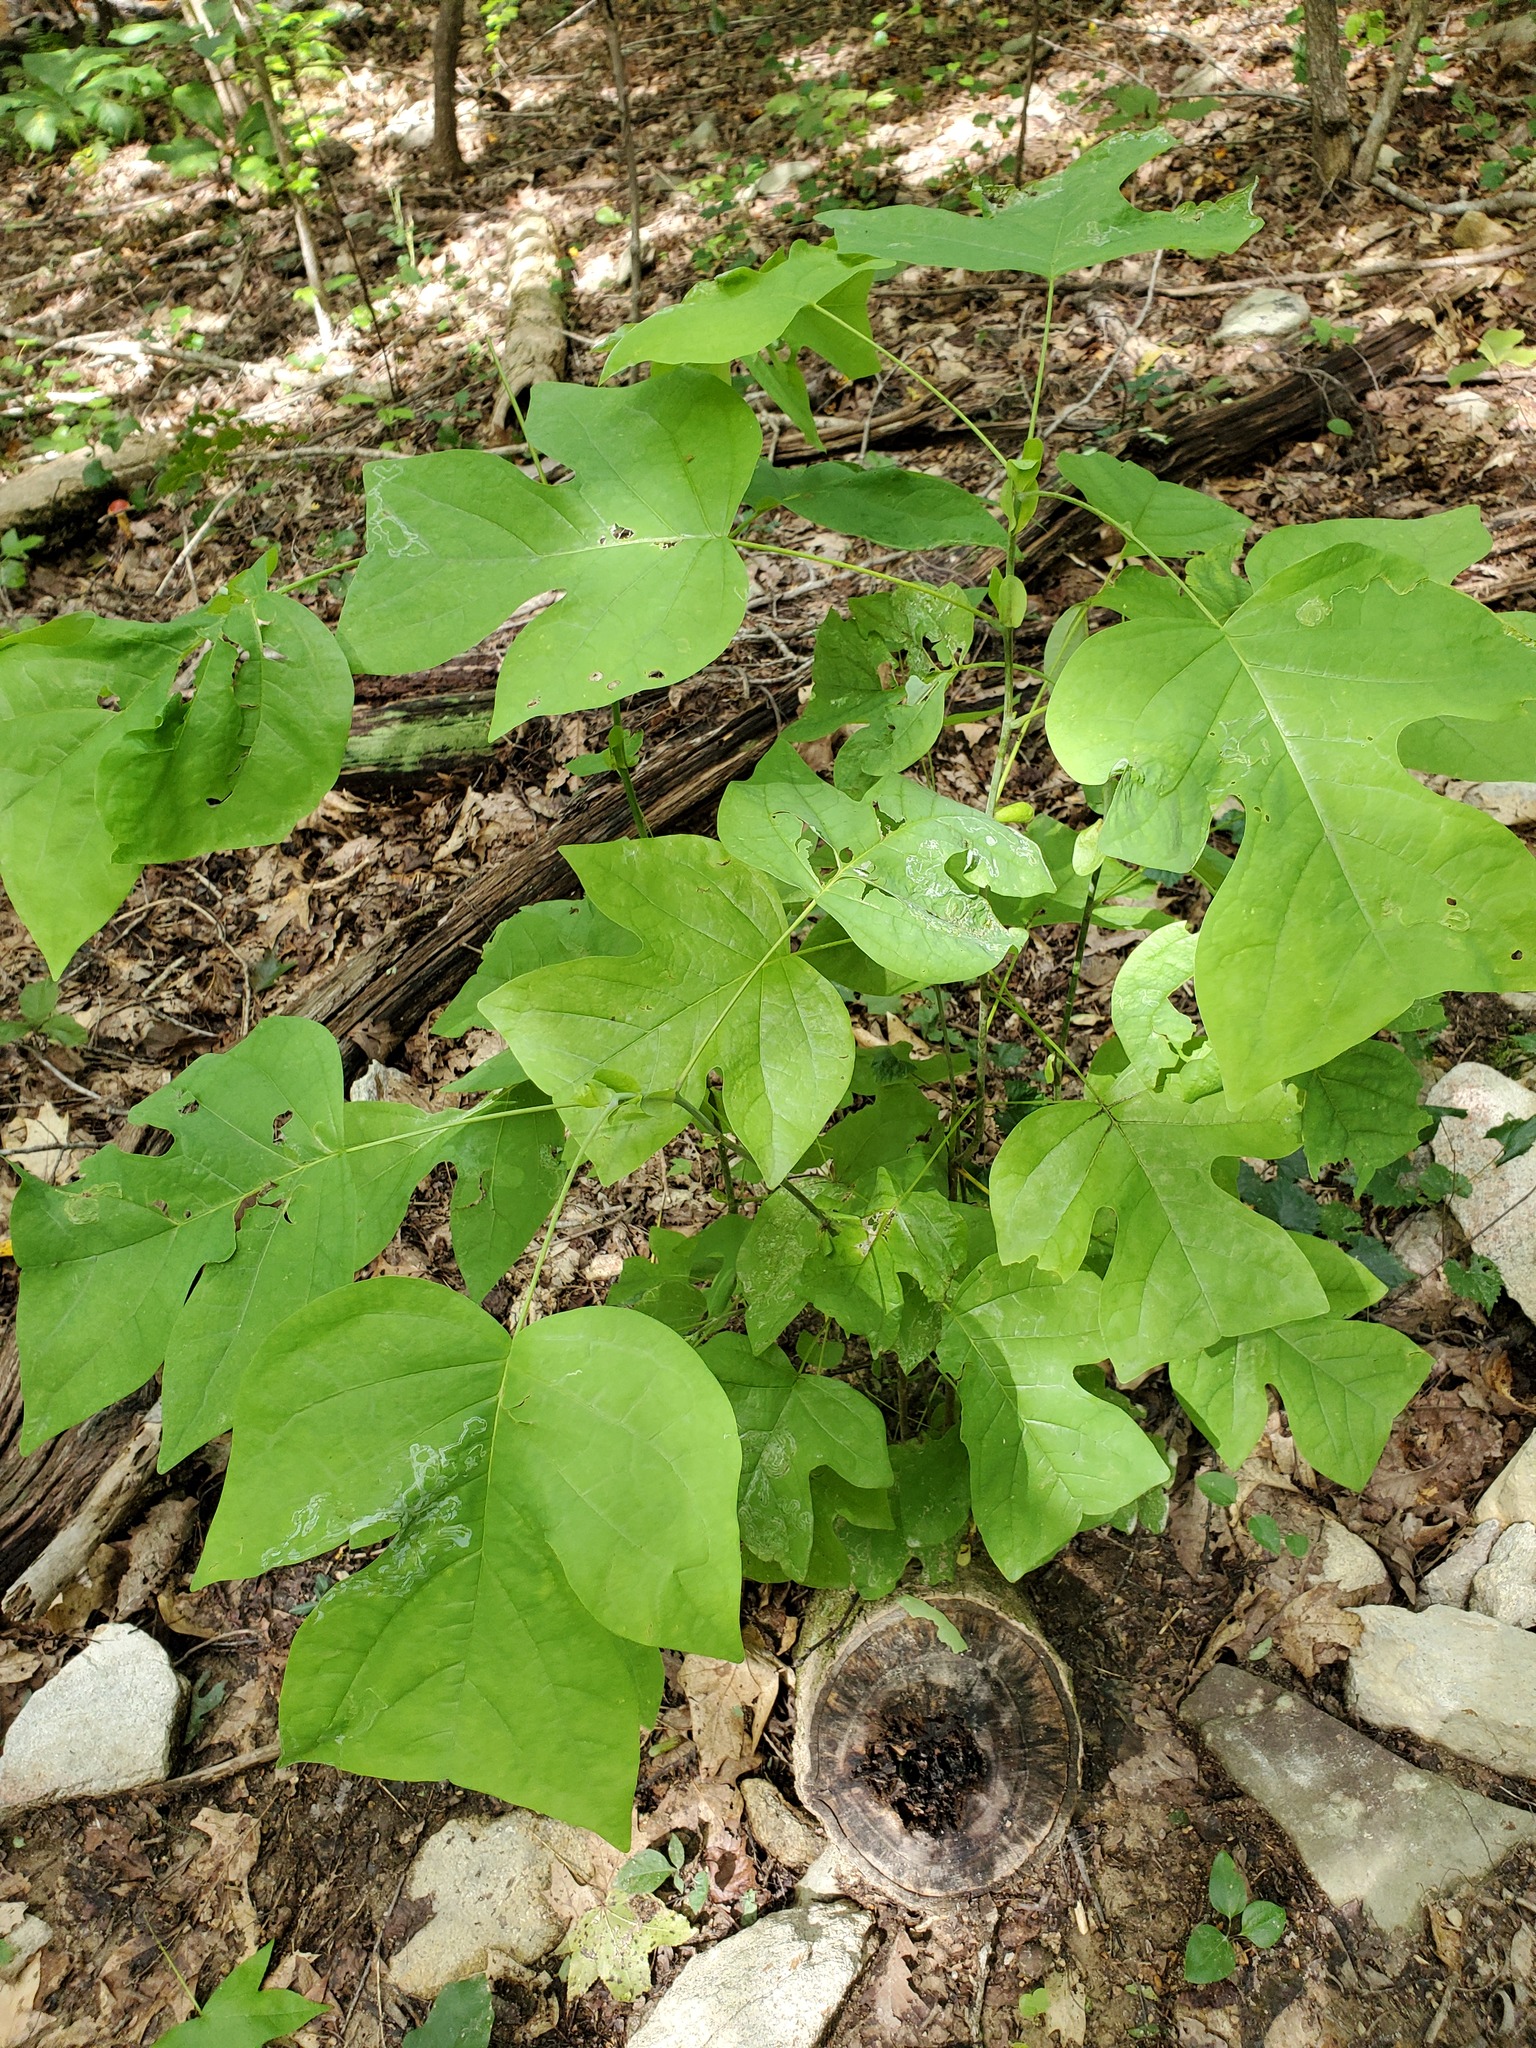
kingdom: Plantae
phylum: Tracheophyta
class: Magnoliopsida
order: Magnoliales
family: Magnoliaceae
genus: Liriodendron
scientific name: Liriodendron tulipifera
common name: Tulip tree
